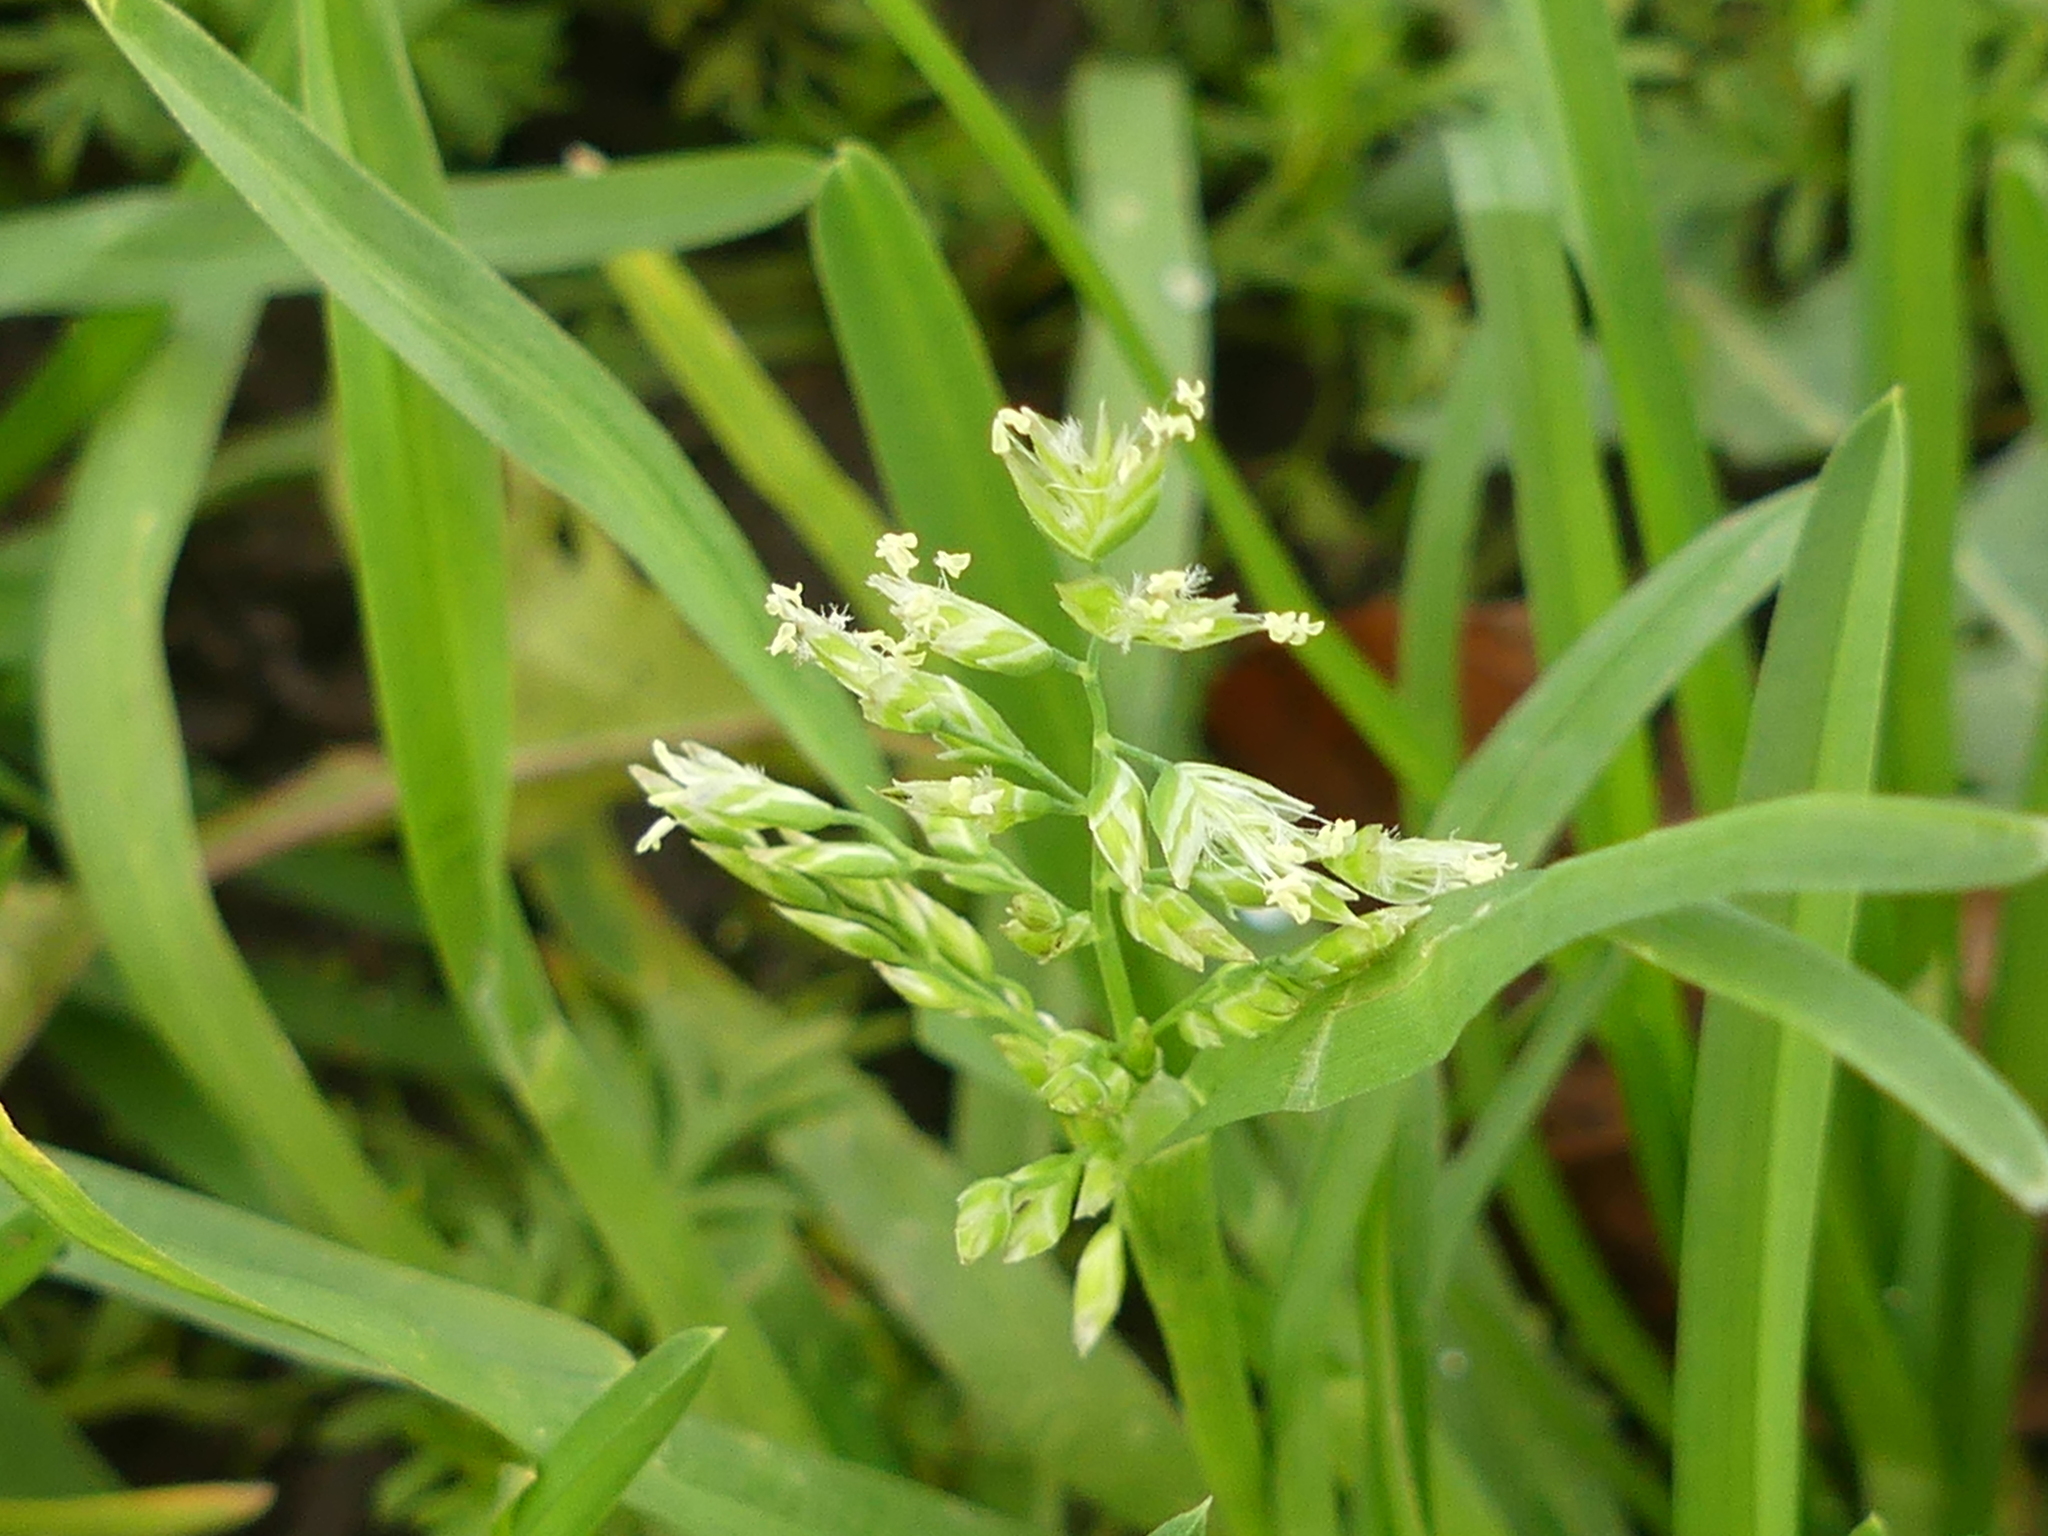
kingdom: Plantae
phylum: Tracheophyta
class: Liliopsida
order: Poales
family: Poaceae
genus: Poa
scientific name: Poa annua
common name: Annual bluegrass
